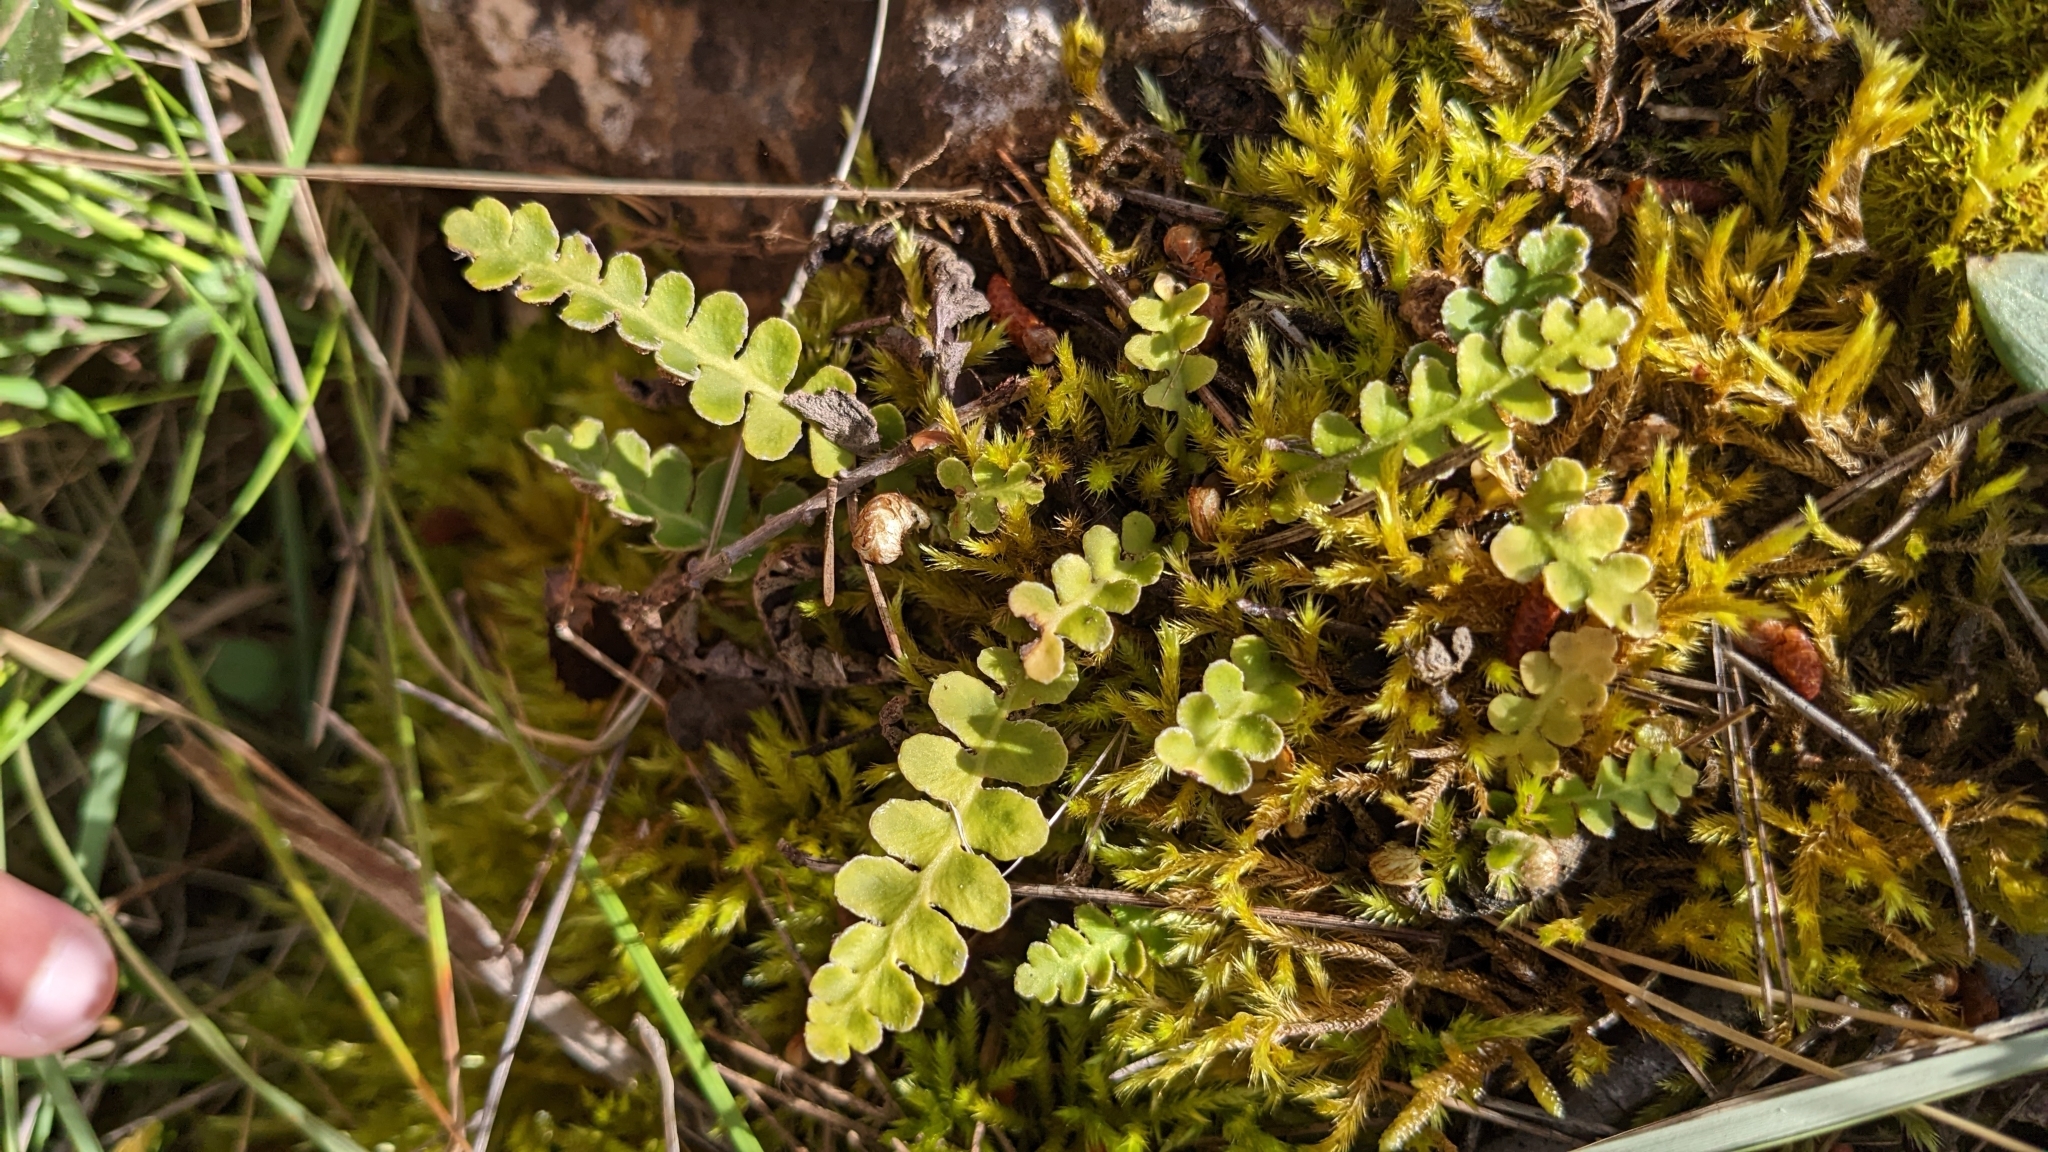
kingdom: Plantae
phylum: Tracheophyta
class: Polypodiopsida
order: Polypodiales
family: Aspleniaceae
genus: Asplenium
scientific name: Asplenium ceterach
